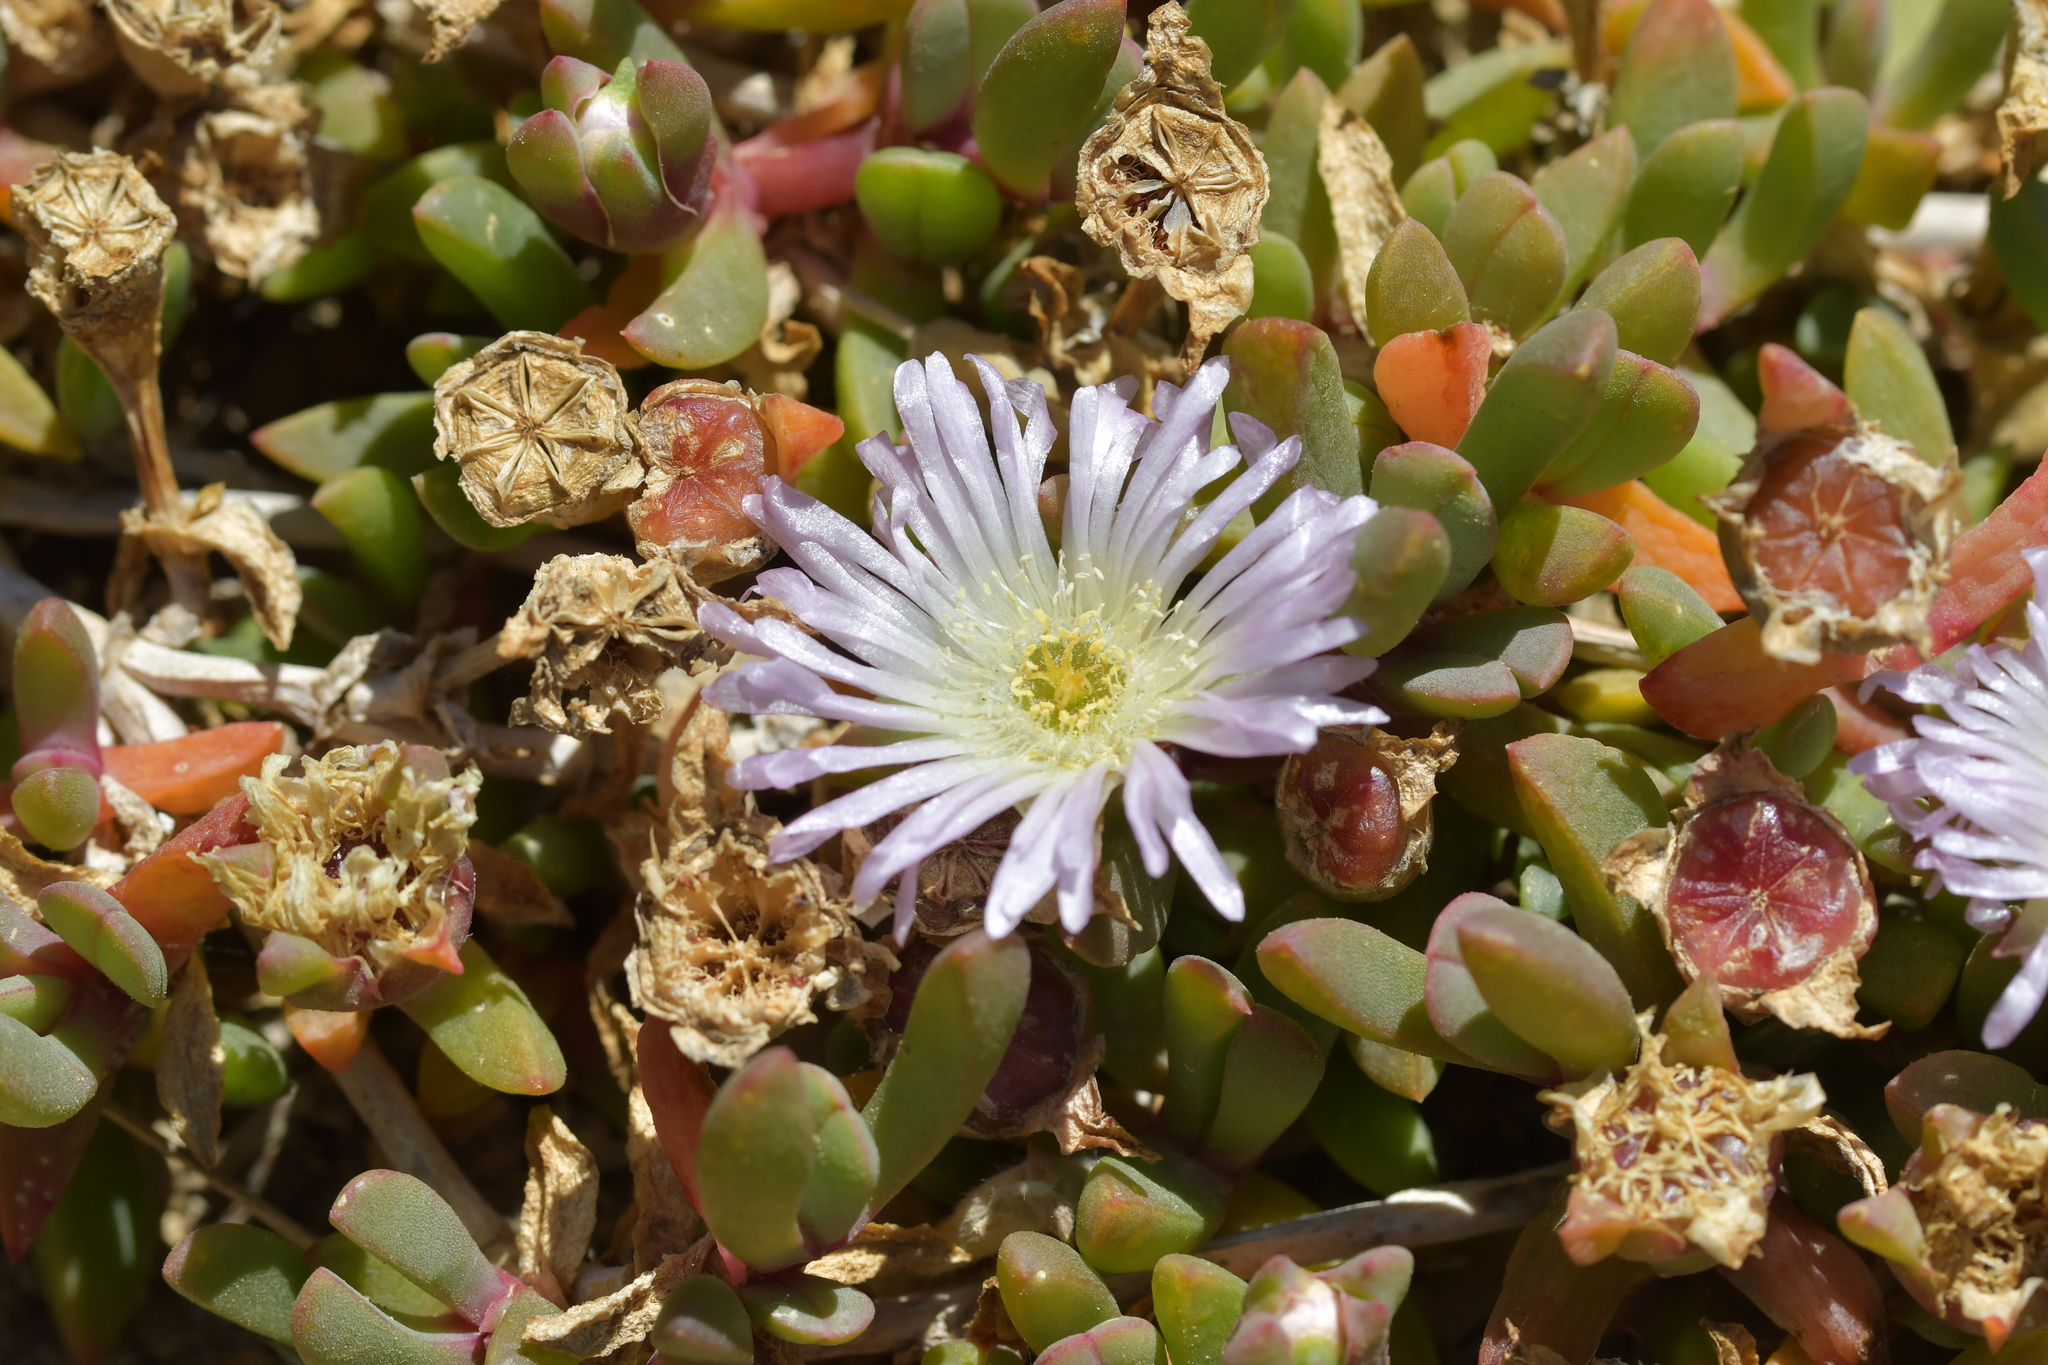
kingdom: Plantae
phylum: Tracheophyta
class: Magnoliopsida
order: Caryophyllales
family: Aizoaceae
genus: Disphyma
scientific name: Disphyma australe
